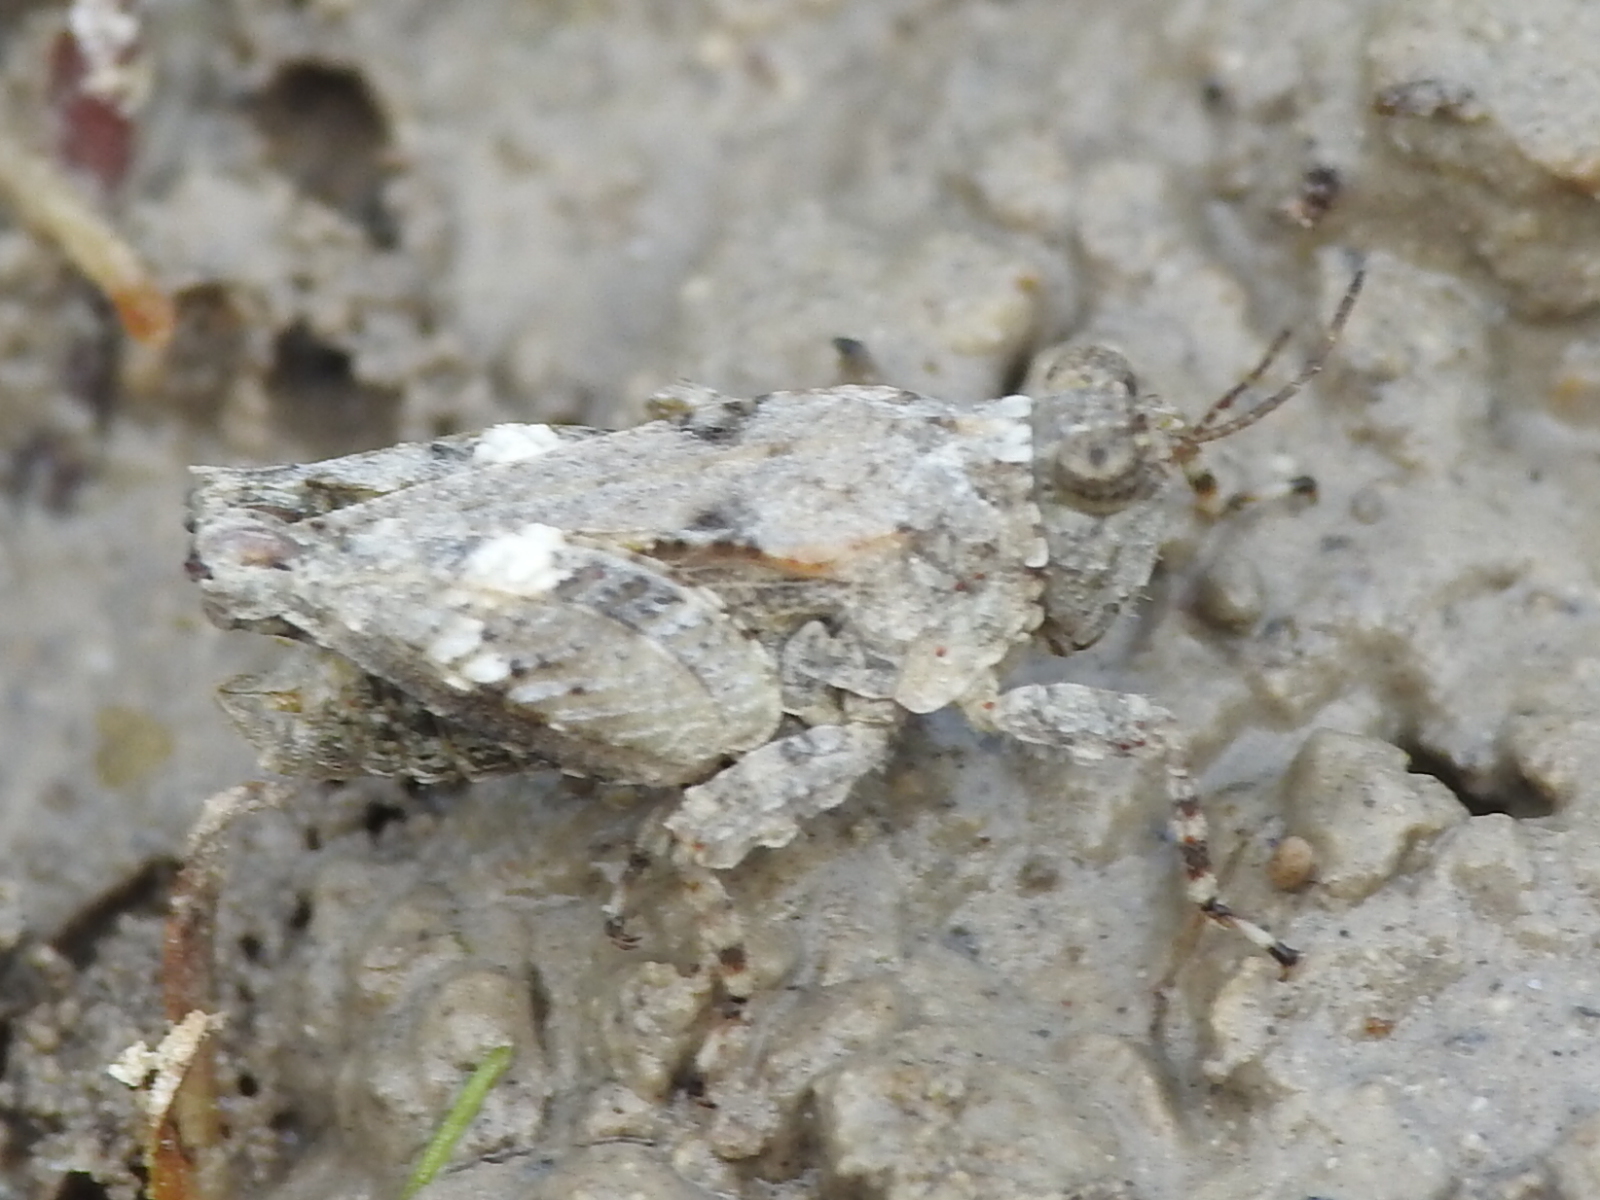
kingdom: Animalia
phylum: Arthropoda
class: Insecta
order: Orthoptera
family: Tetrigidae
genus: Paratettix
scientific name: Paratettix mexicanus
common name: Mexican pygmy grasshopper
